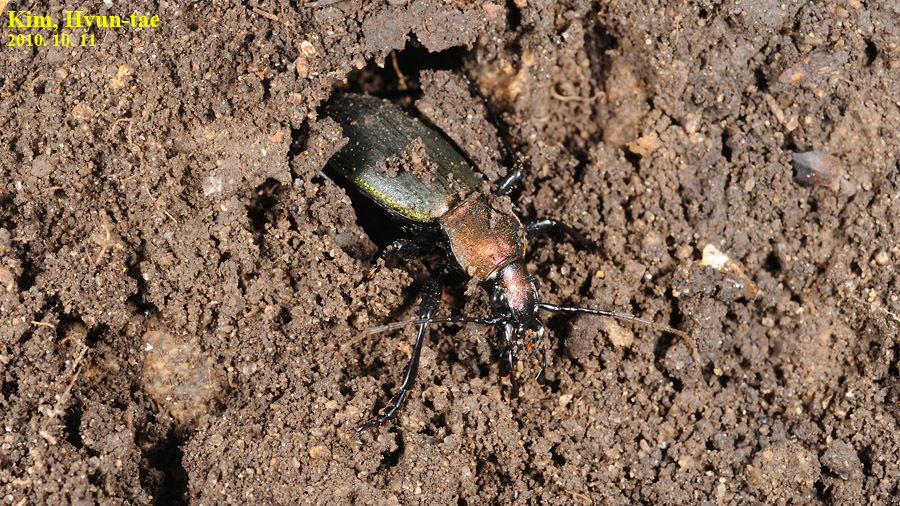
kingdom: Animalia
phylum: Arthropoda
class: Insecta
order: Coleoptera
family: Carabidae
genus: Carabus
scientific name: Carabus jankowskii
